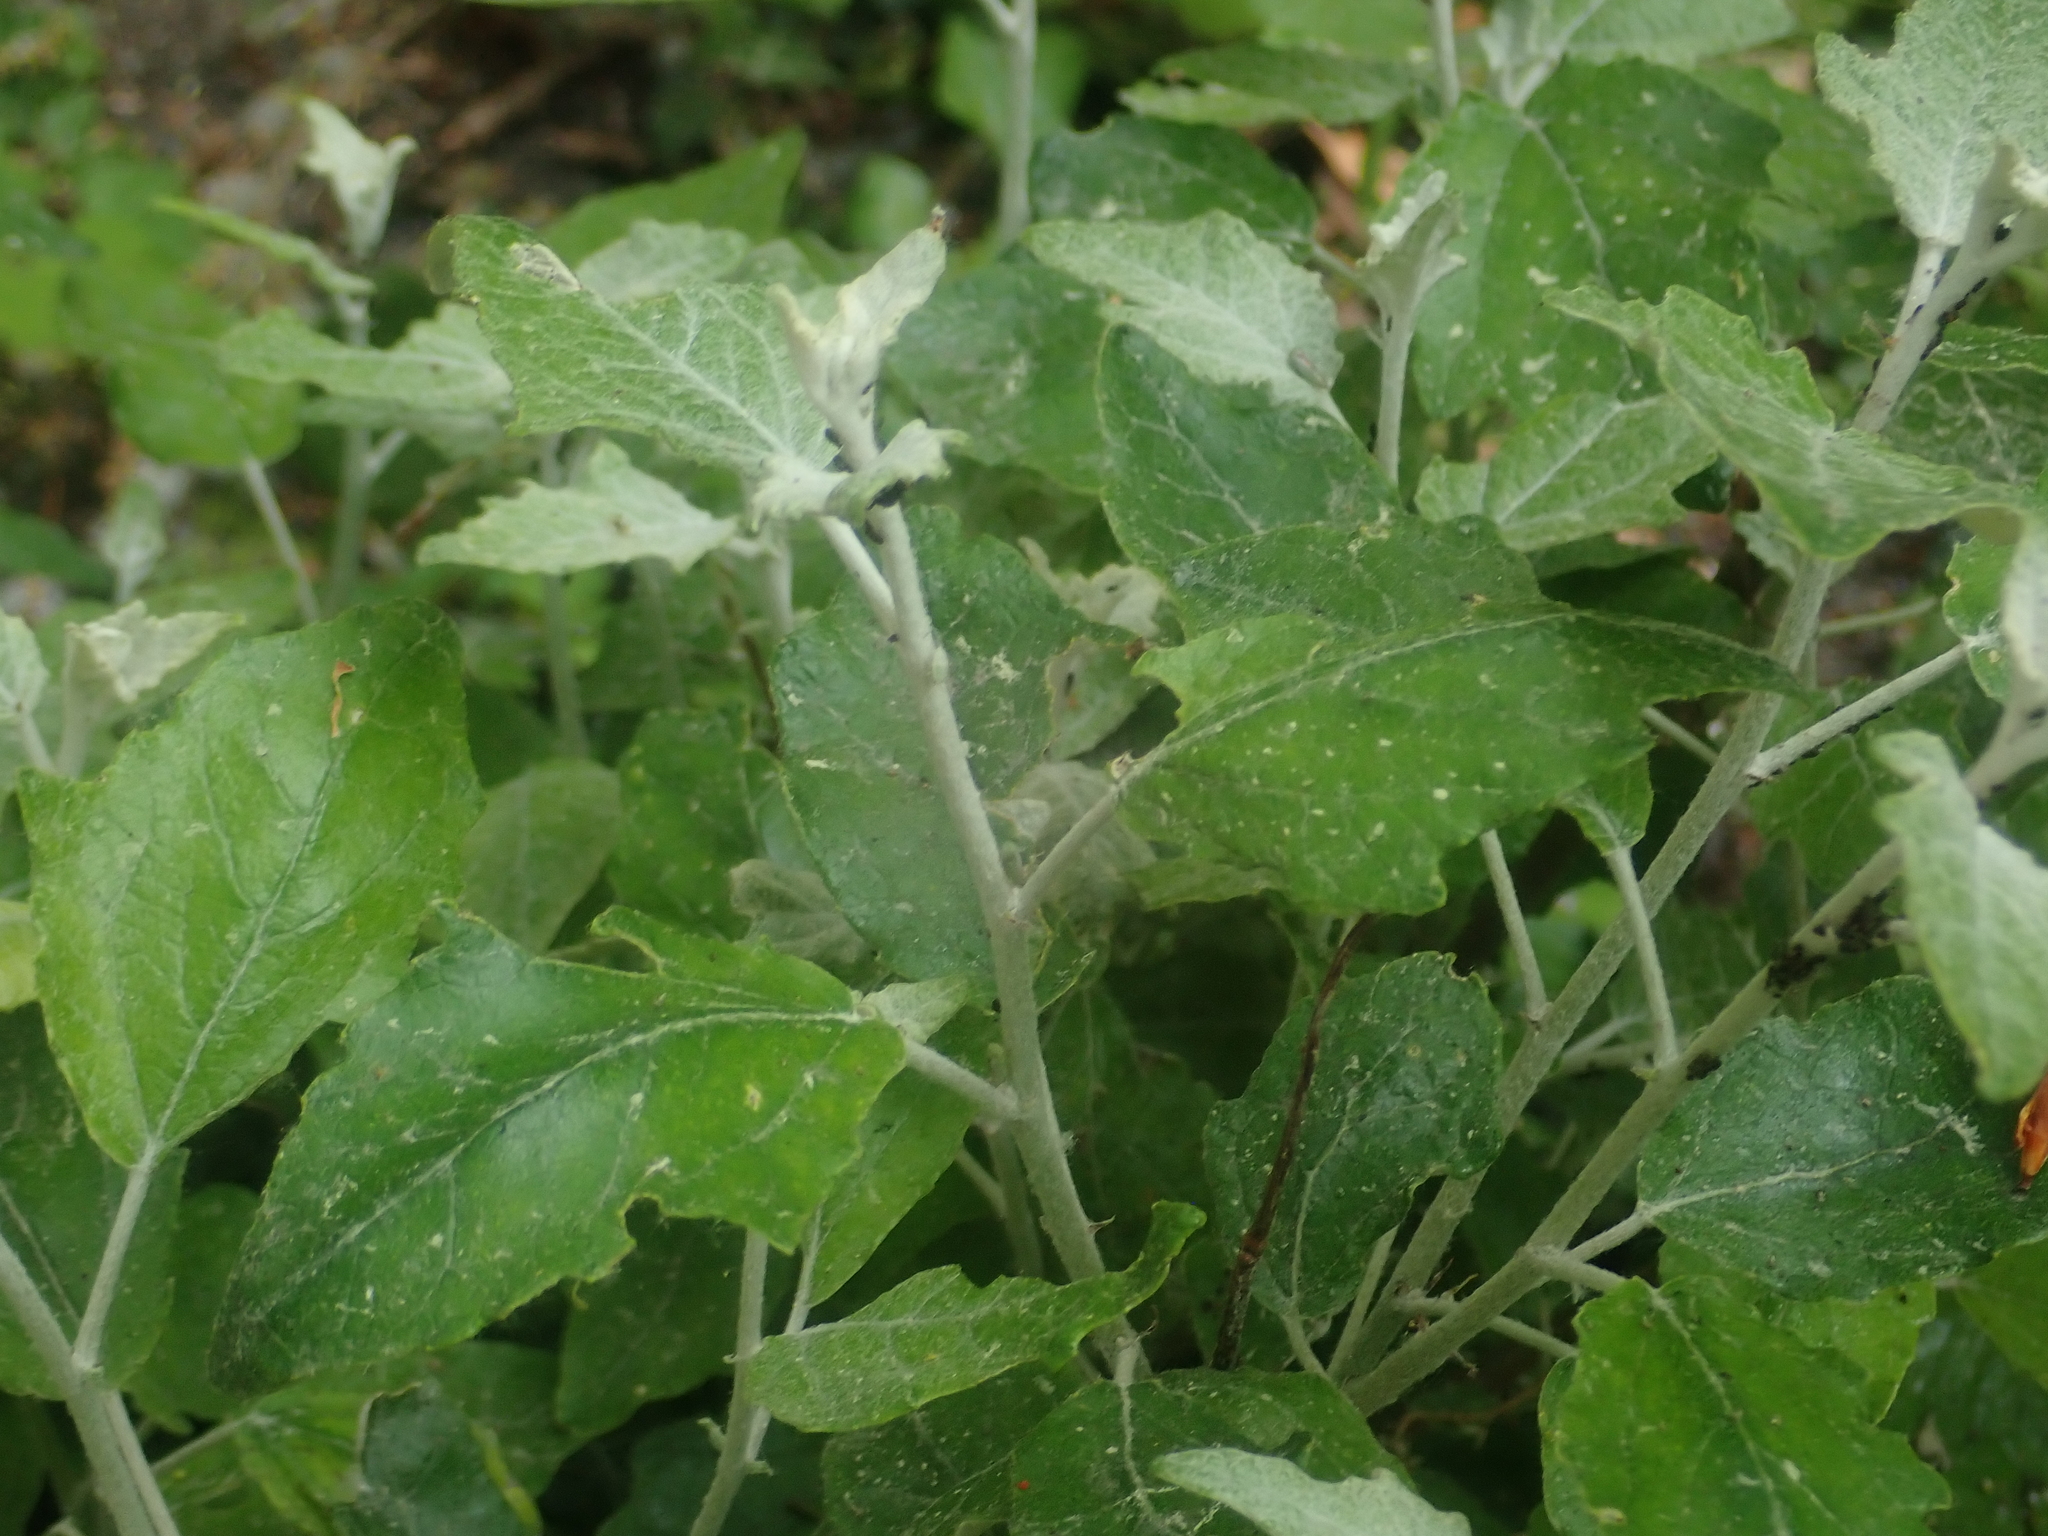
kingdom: Plantae
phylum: Tracheophyta
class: Magnoliopsida
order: Malpighiales
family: Salicaceae
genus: Populus
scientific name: Populus alba
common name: White poplar
